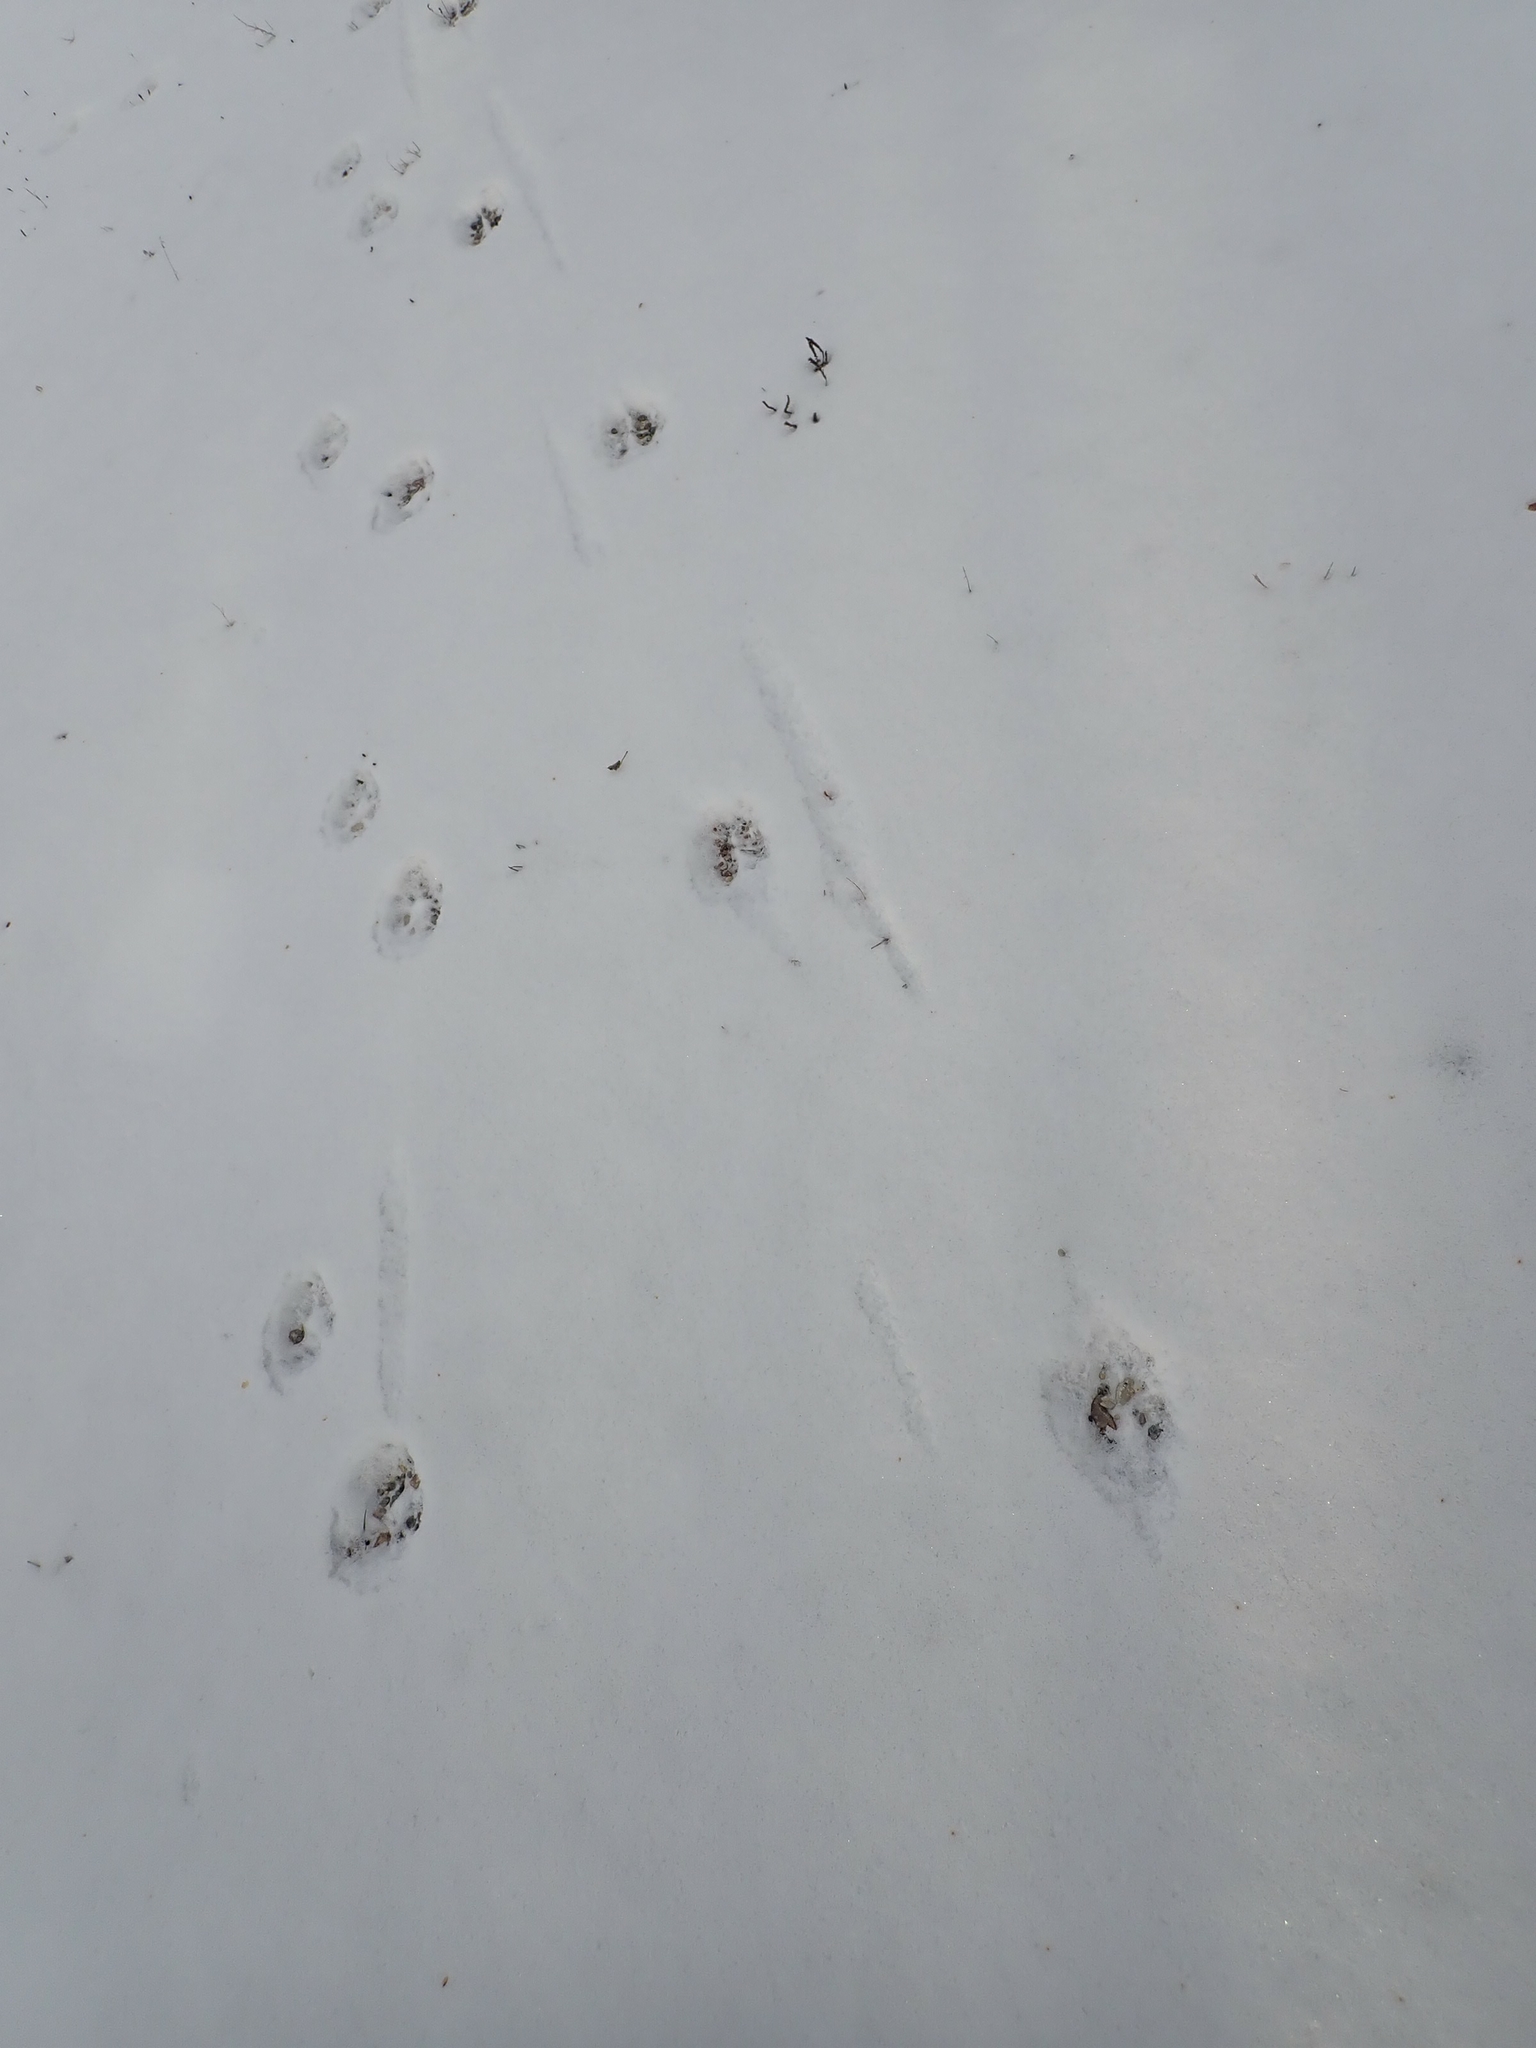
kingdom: Animalia
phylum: Chordata
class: Mammalia
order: Artiodactyla
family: Cervidae
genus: Odocoileus
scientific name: Odocoileus virginianus
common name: White-tailed deer
